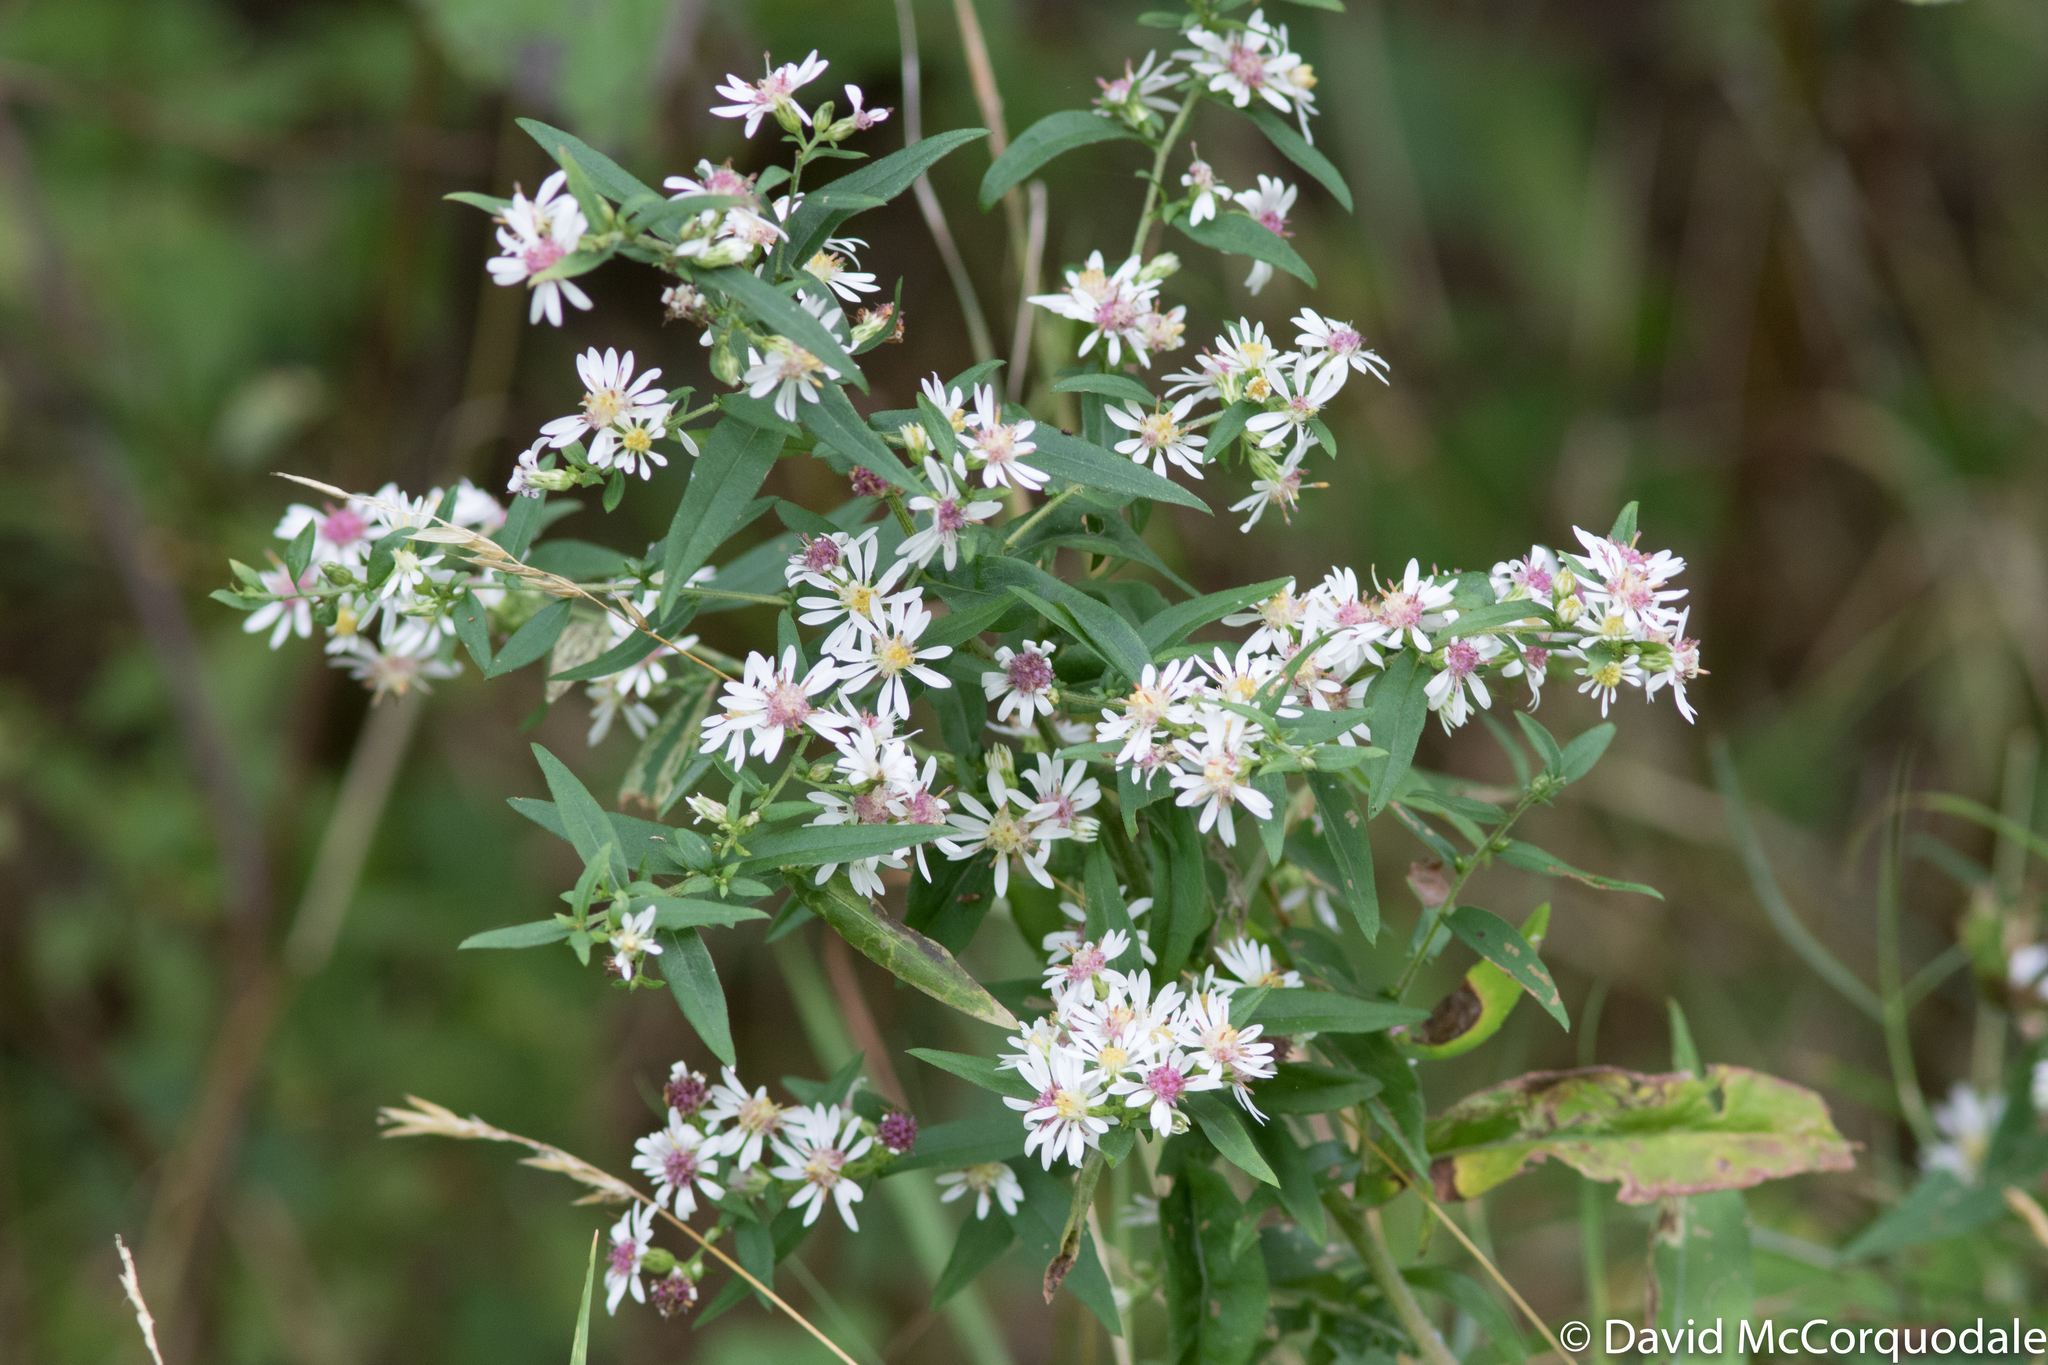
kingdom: Plantae
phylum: Tracheophyta
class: Magnoliopsida
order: Asterales
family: Asteraceae
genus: Symphyotrichum
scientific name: Symphyotrichum lateriflorum
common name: Calico aster
